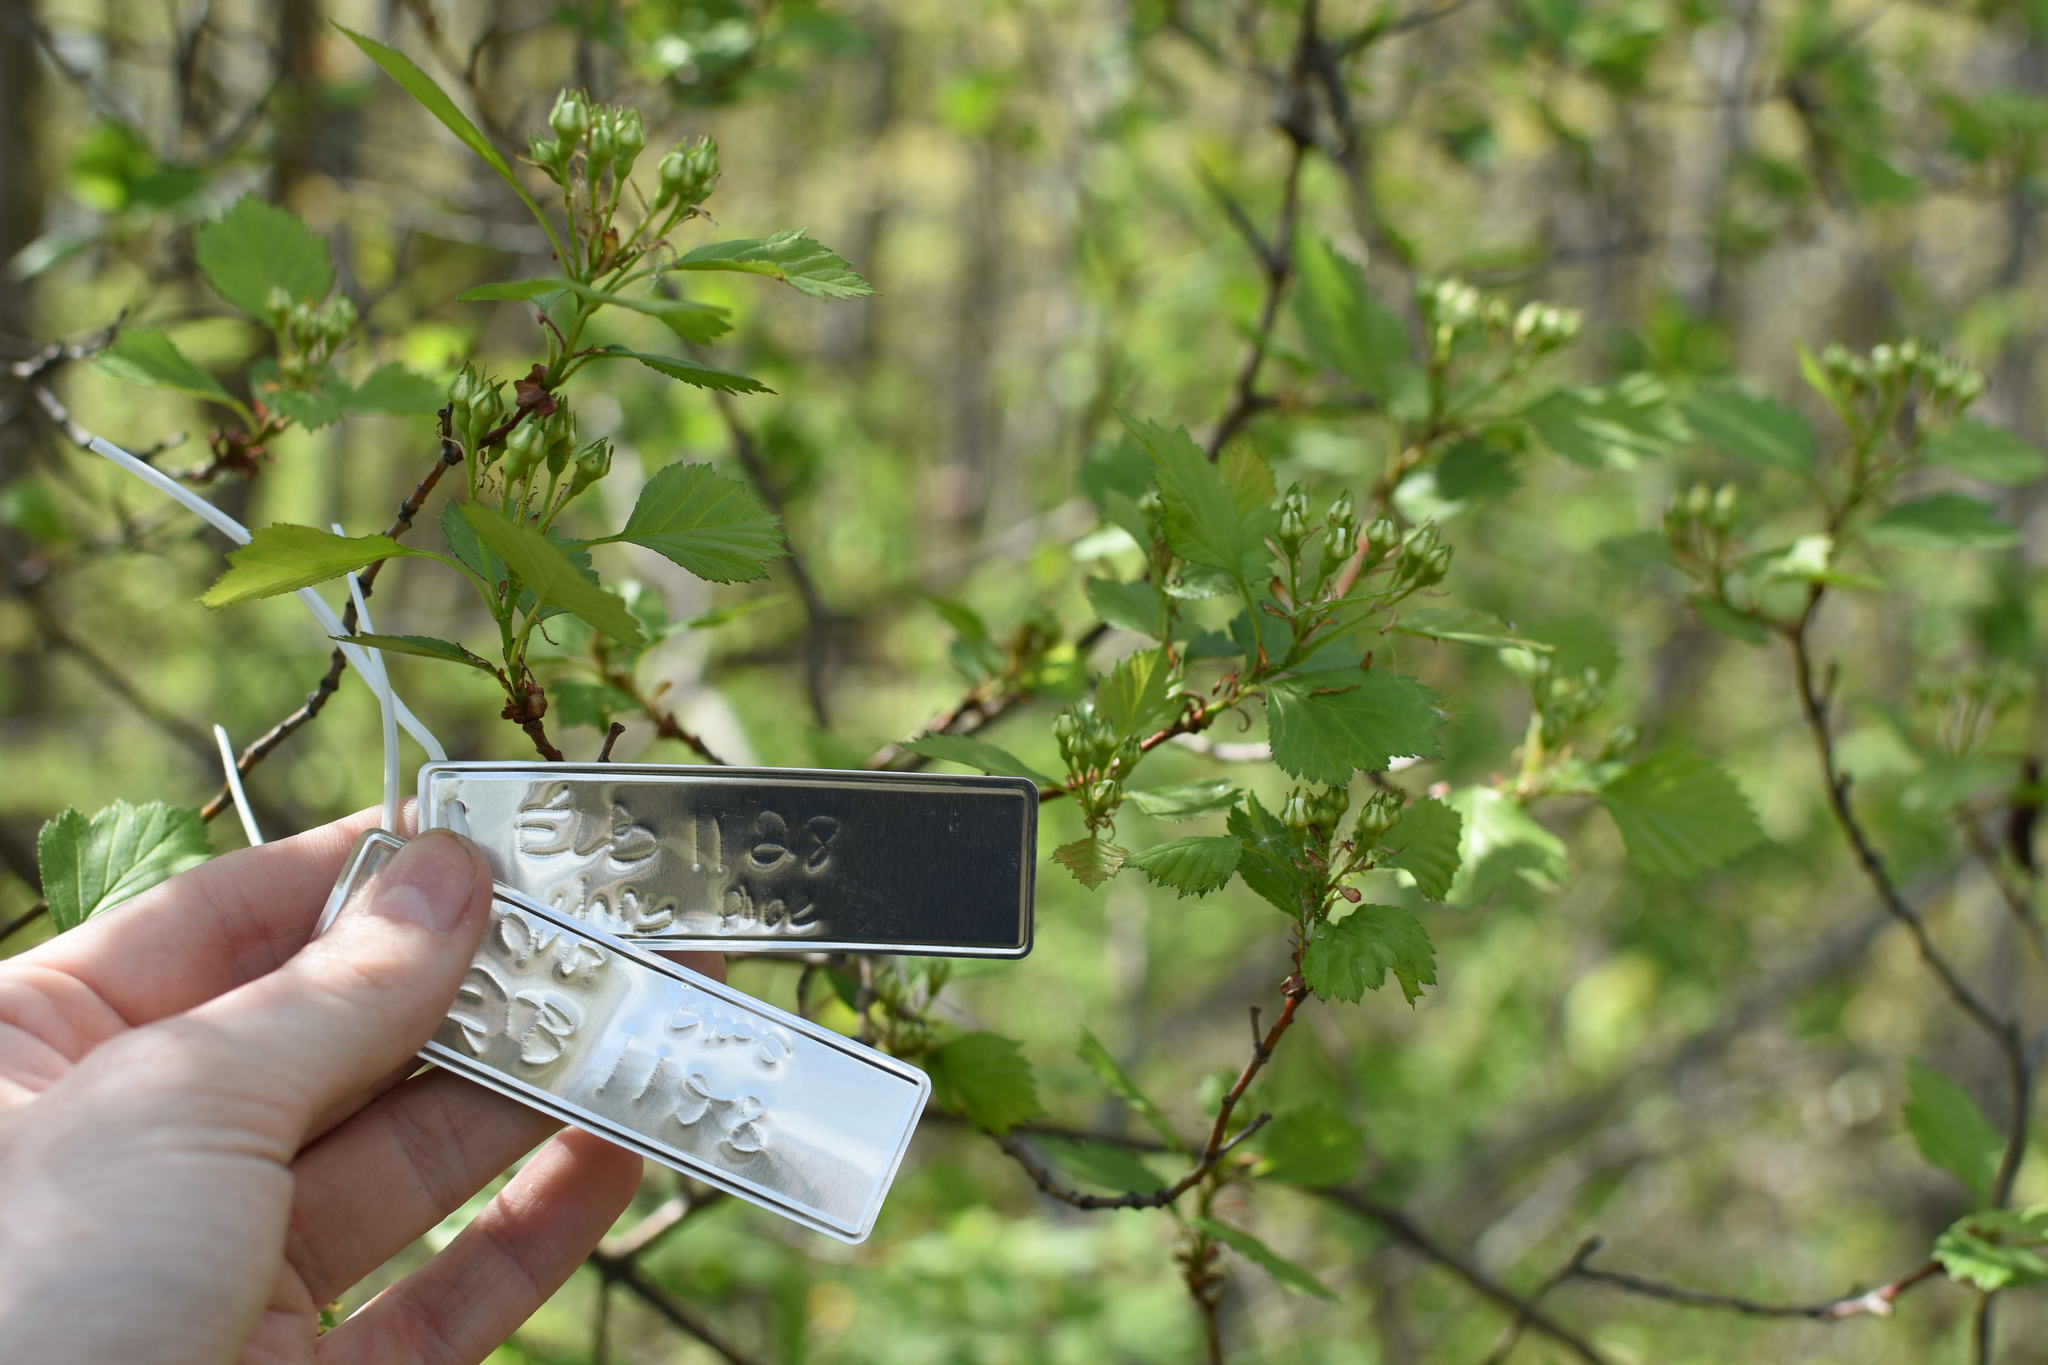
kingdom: Plantae
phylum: Tracheophyta
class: Magnoliopsida
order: Rosales
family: Rosaceae
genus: Crataegus
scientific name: Crataegus chrysocarpa
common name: Fire-berry hawthorn
